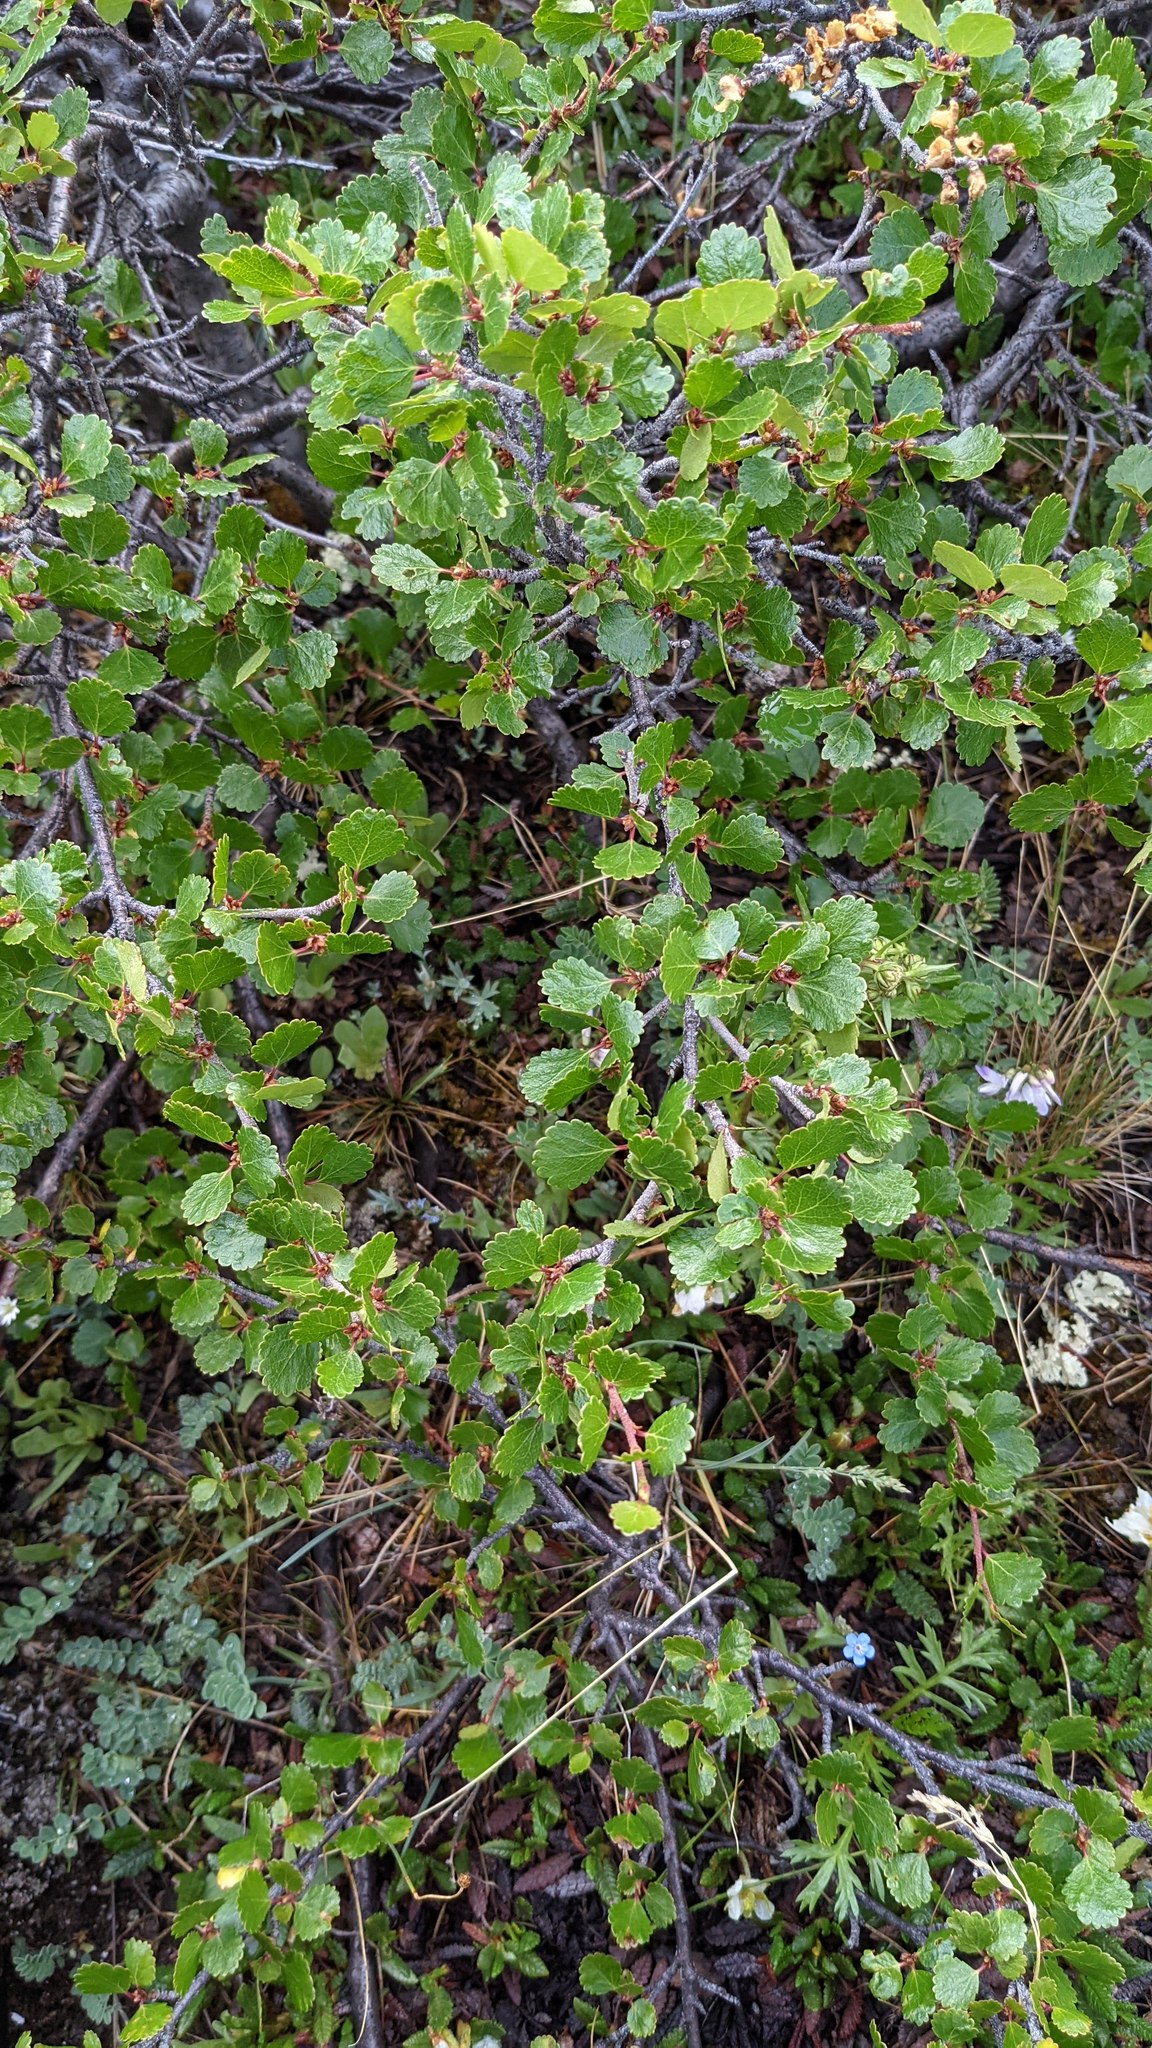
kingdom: Plantae
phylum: Tracheophyta
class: Magnoliopsida
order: Fagales
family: Betulaceae
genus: Betula
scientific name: Betula glandulosa
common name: Dwarf birch
